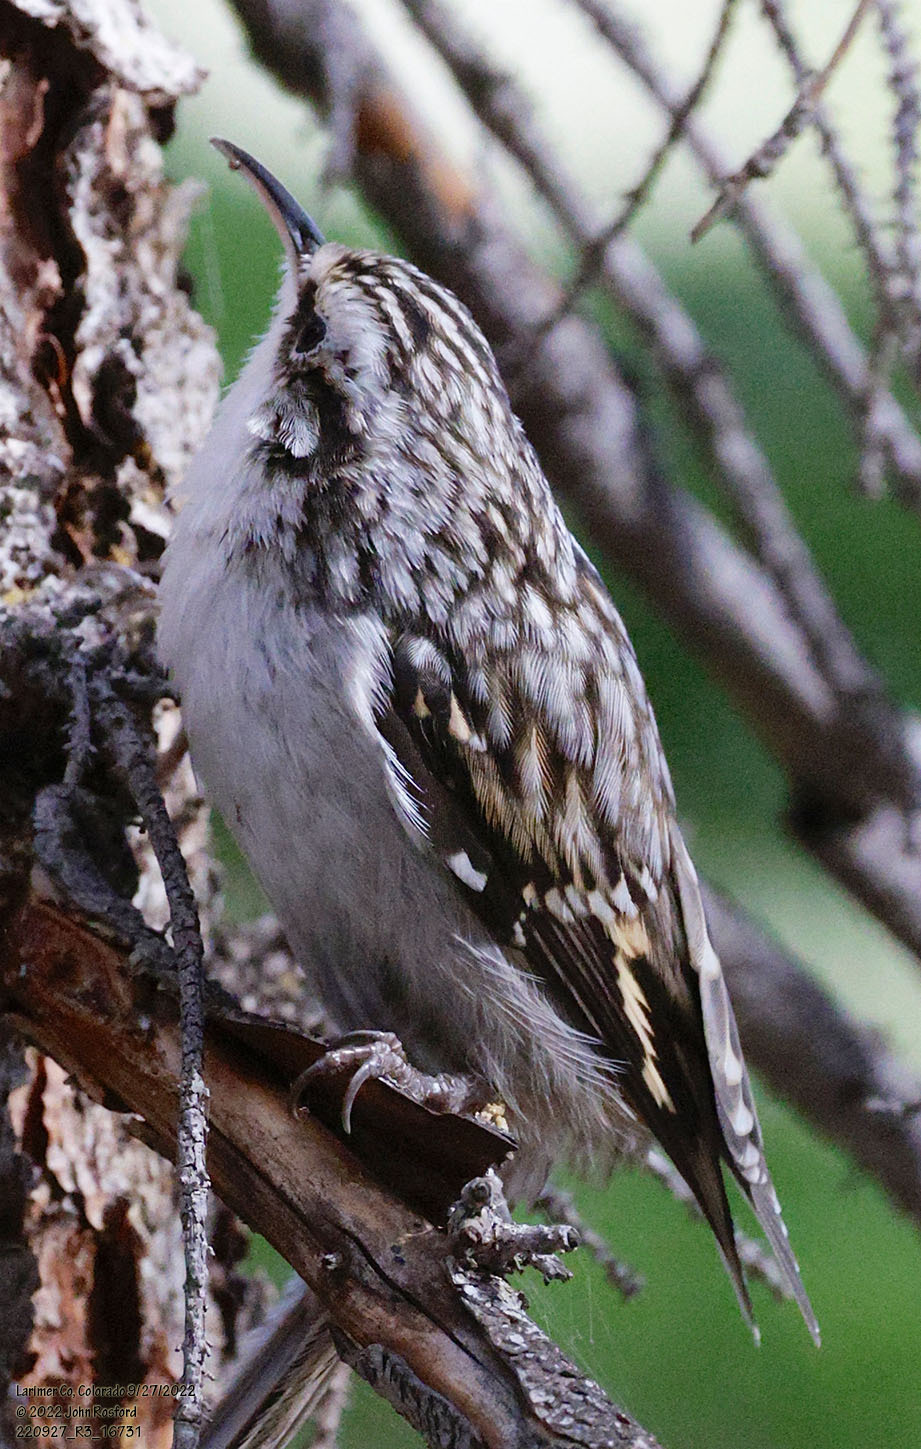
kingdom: Animalia
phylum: Chordata
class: Aves
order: Passeriformes
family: Certhiidae
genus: Certhia
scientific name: Certhia americana
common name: Brown creeper
